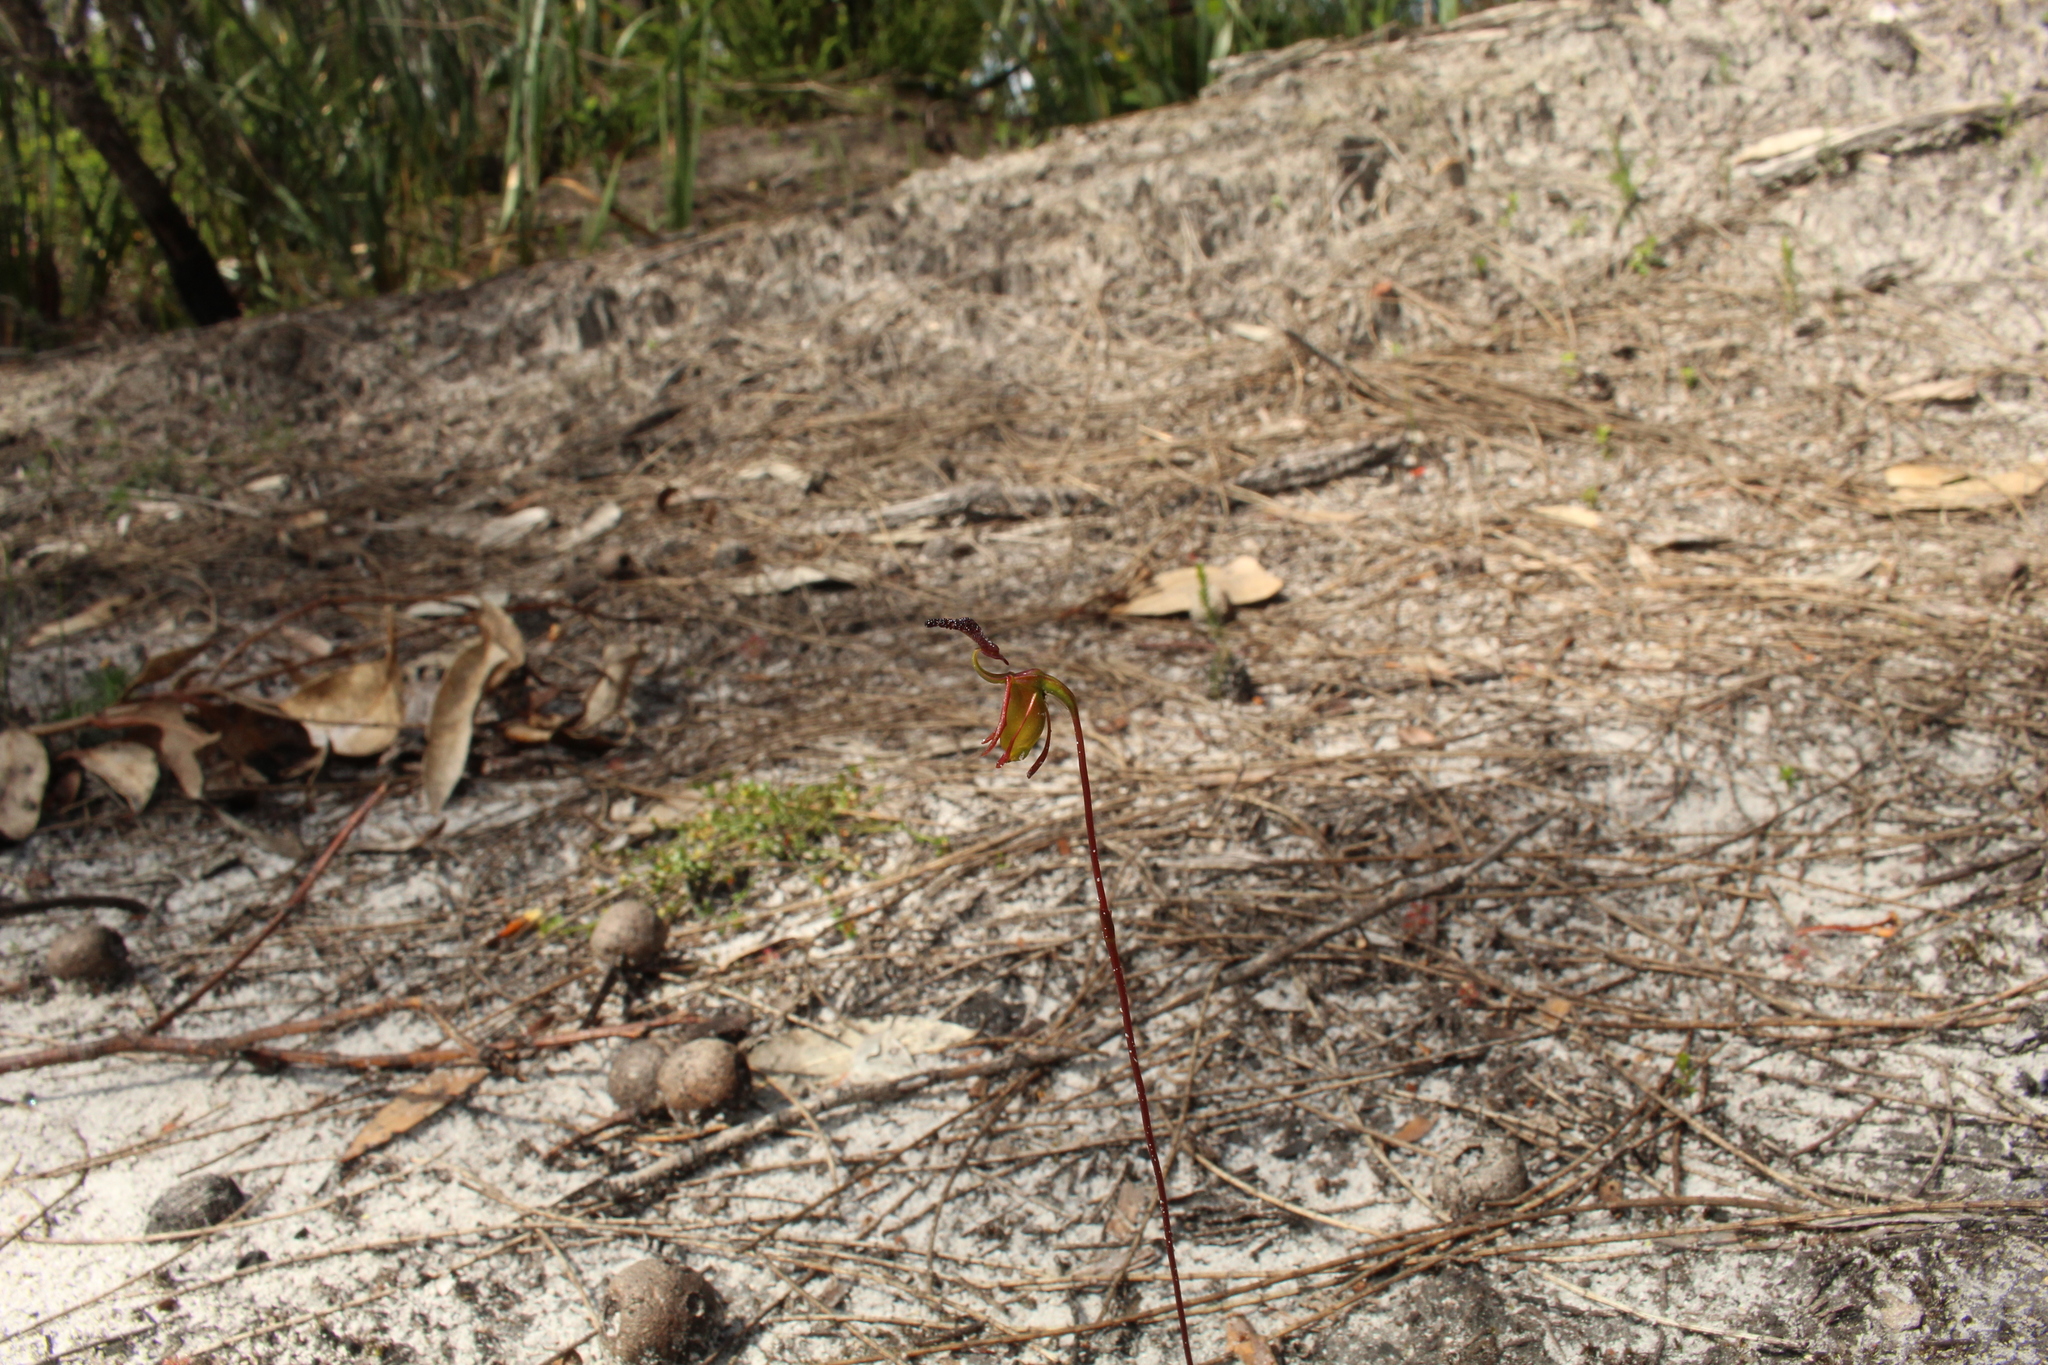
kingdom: Plantae
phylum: Tracheophyta
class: Liliopsida
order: Asparagales
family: Orchidaceae
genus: Caleana
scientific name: Caleana nigrita
